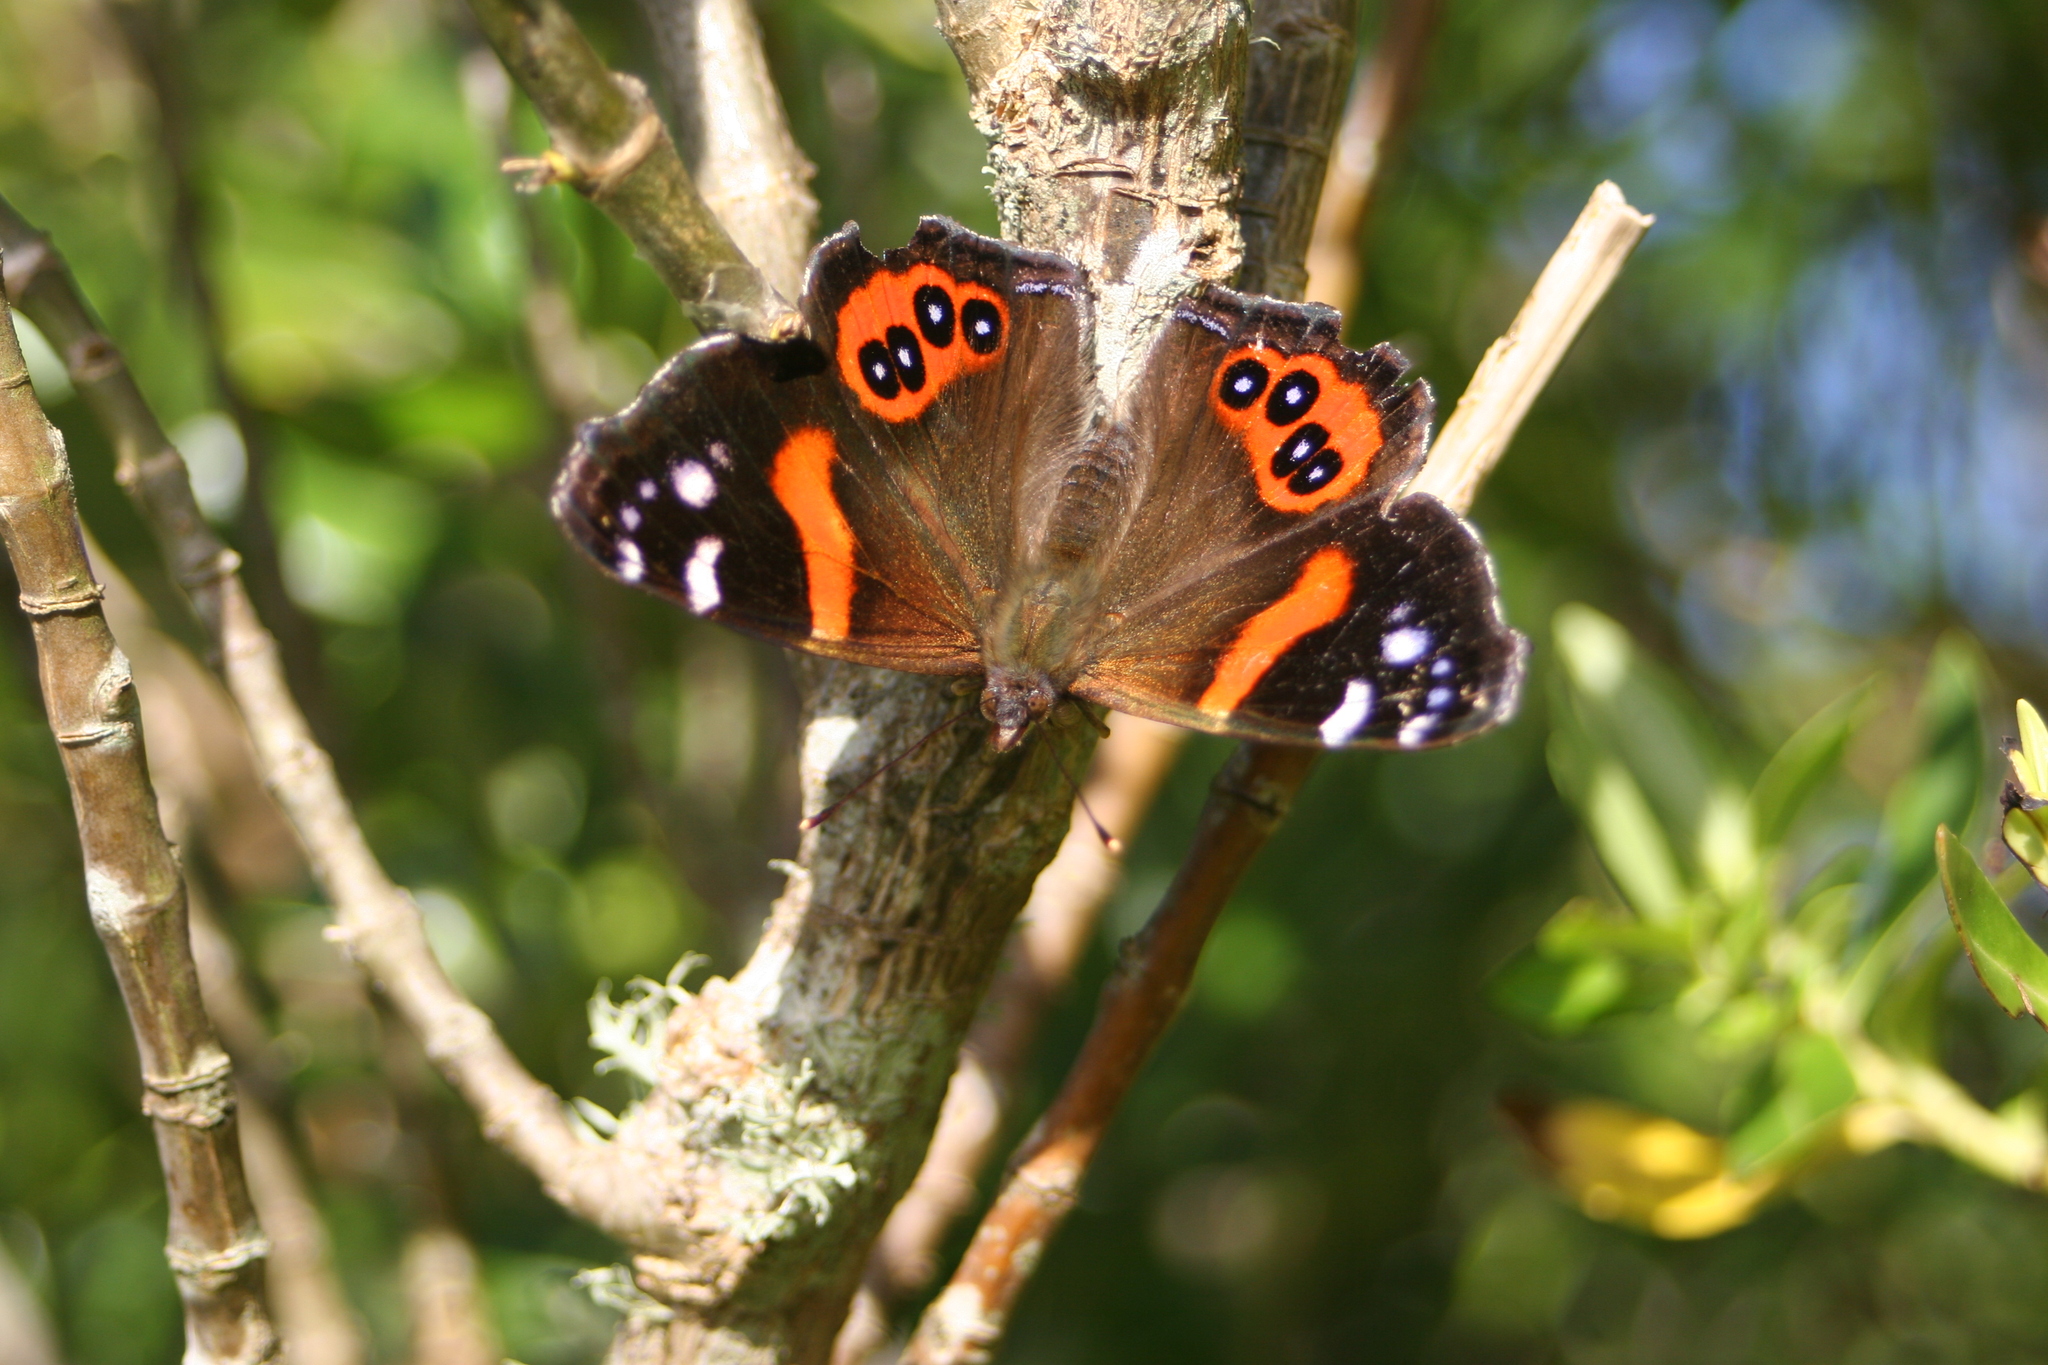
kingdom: Animalia
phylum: Arthropoda
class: Insecta
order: Lepidoptera
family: Nymphalidae
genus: Vanessa
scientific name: Vanessa gonerilla
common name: New zealand red admiral
